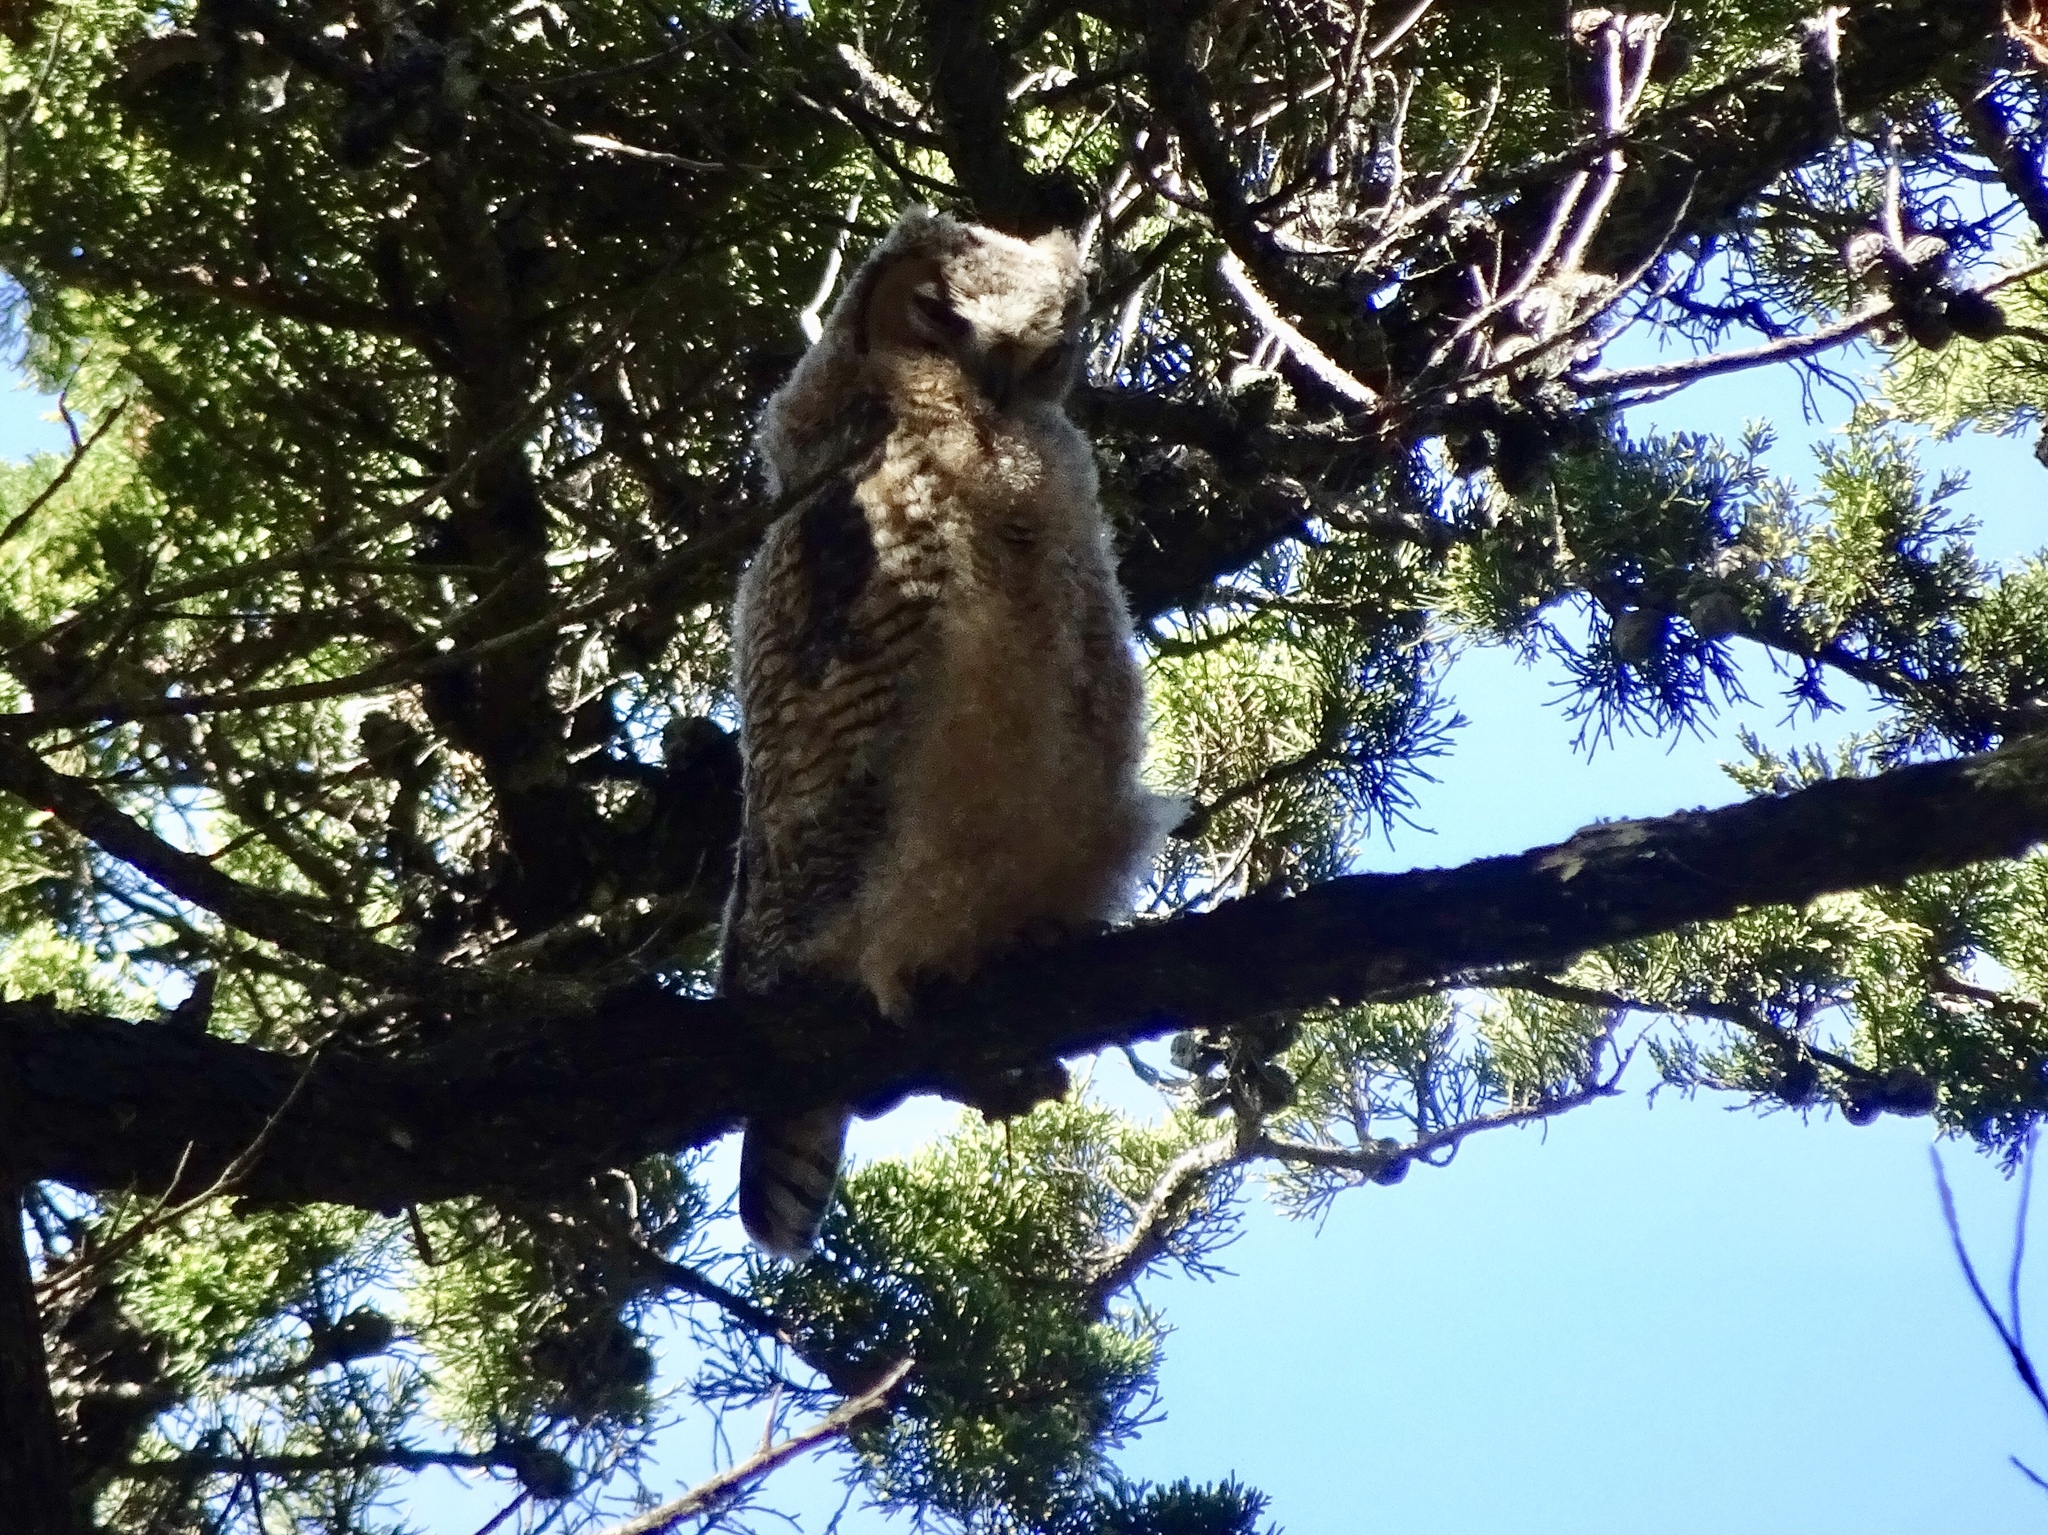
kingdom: Animalia
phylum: Chordata
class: Aves
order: Strigiformes
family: Strigidae
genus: Bubo
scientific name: Bubo virginianus
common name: Great horned owl
